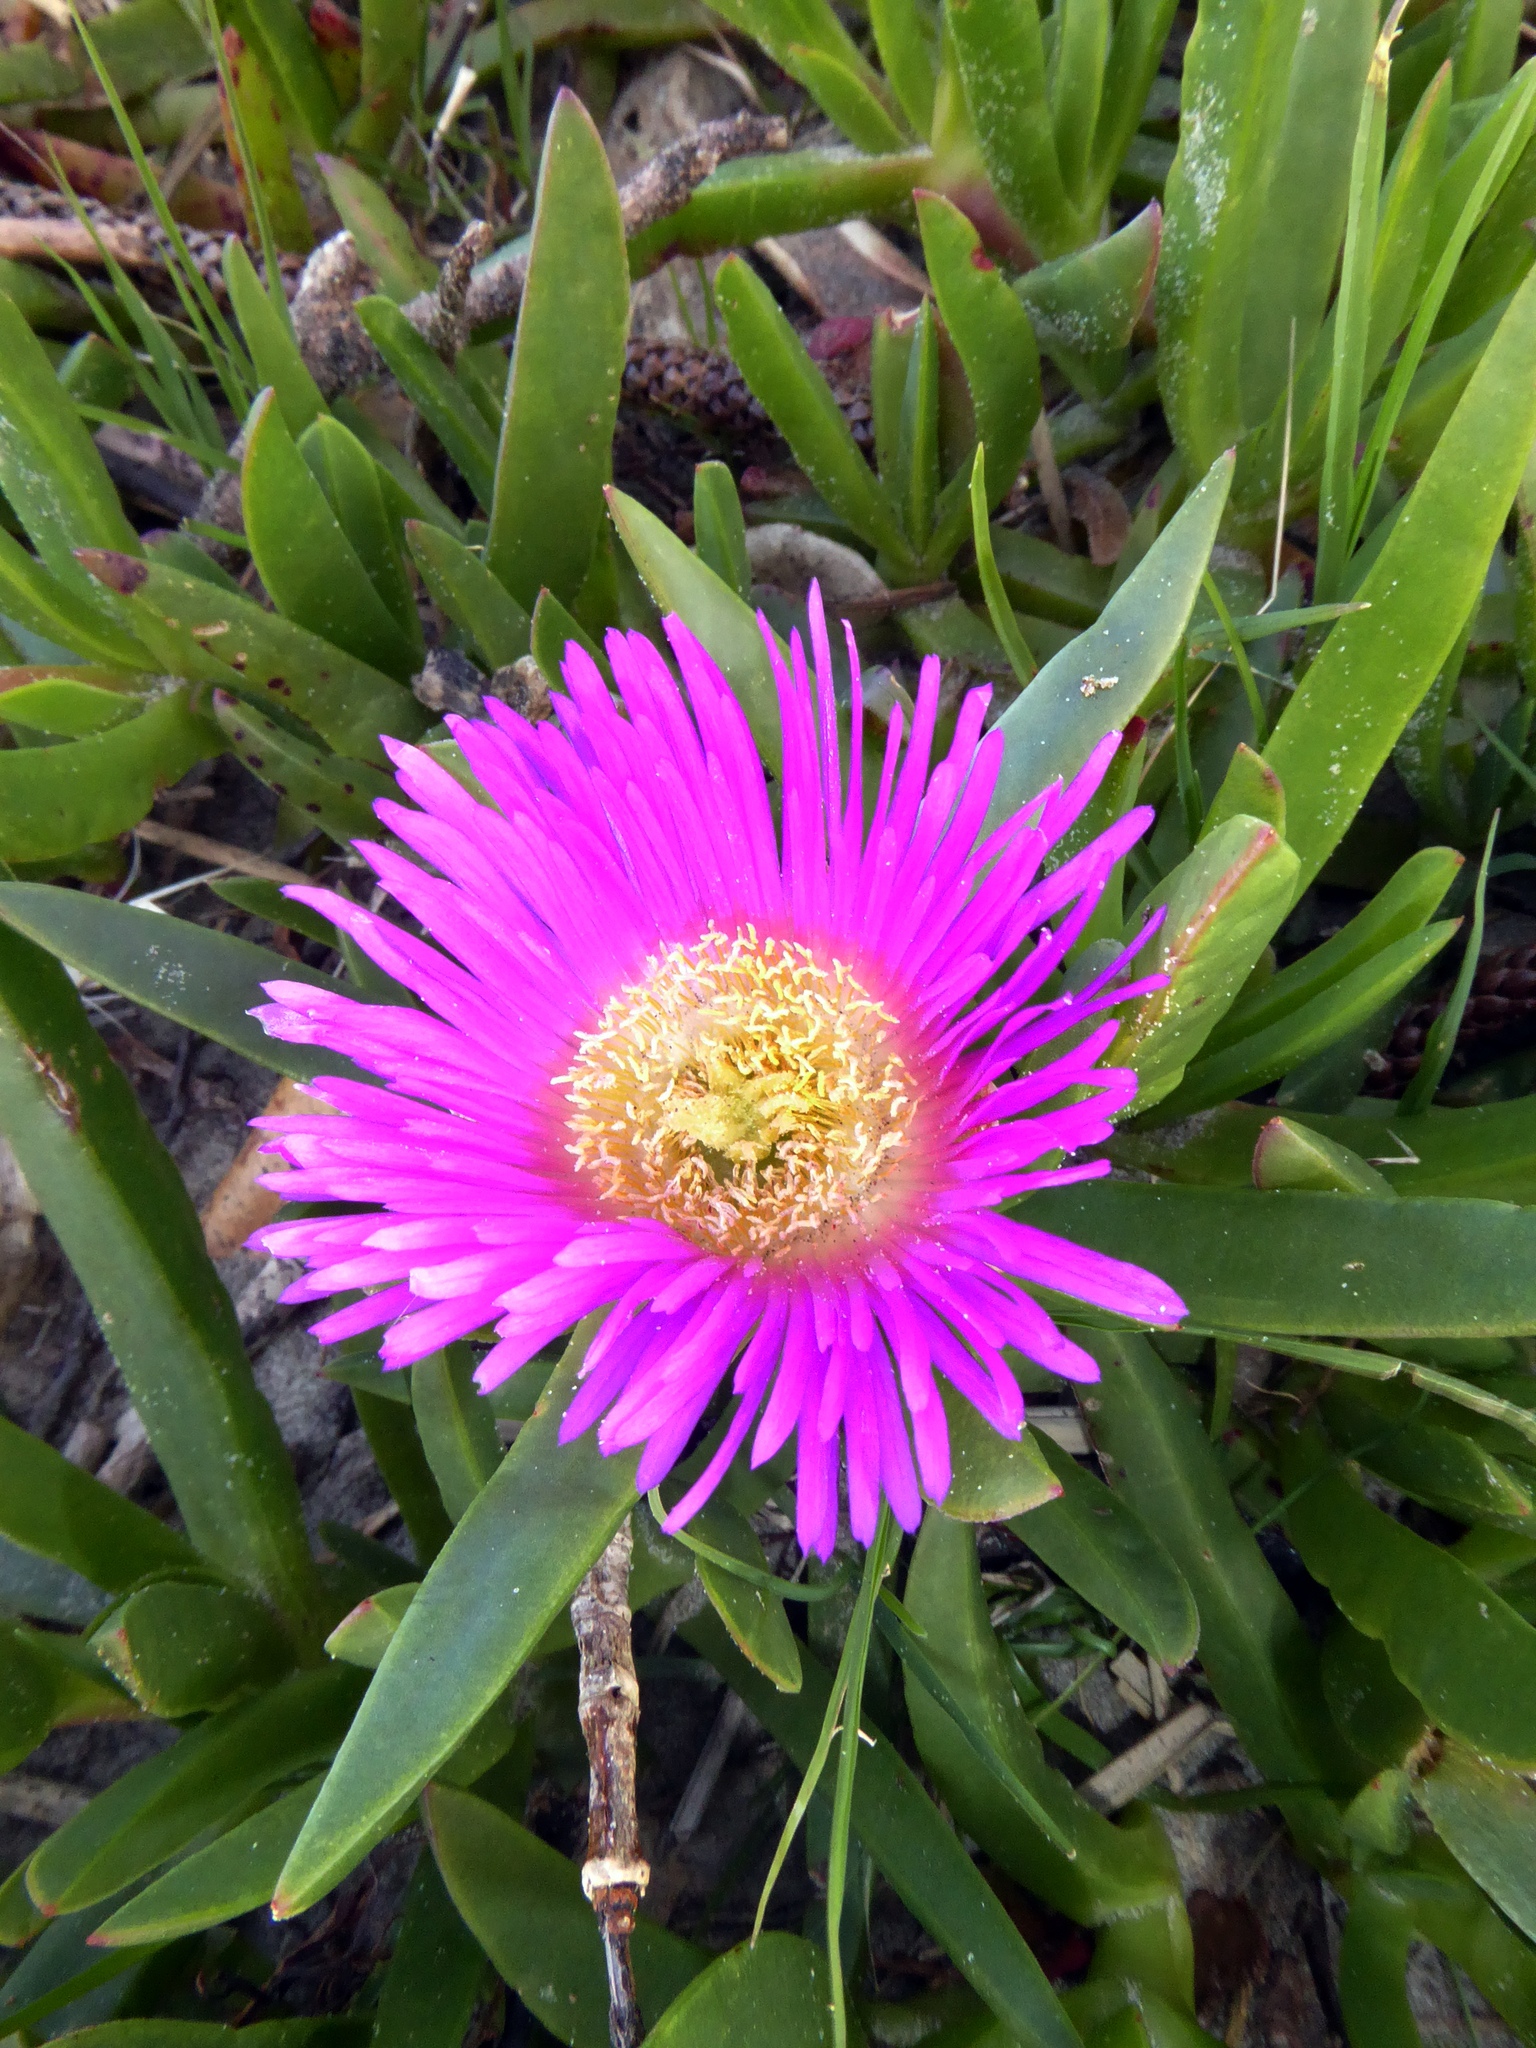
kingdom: Plantae
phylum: Tracheophyta
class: Magnoliopsida
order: Caryophyllales
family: Aizoaceae
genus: Carpobrotus
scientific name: Carpobrotus chilensis
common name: Sea fig
